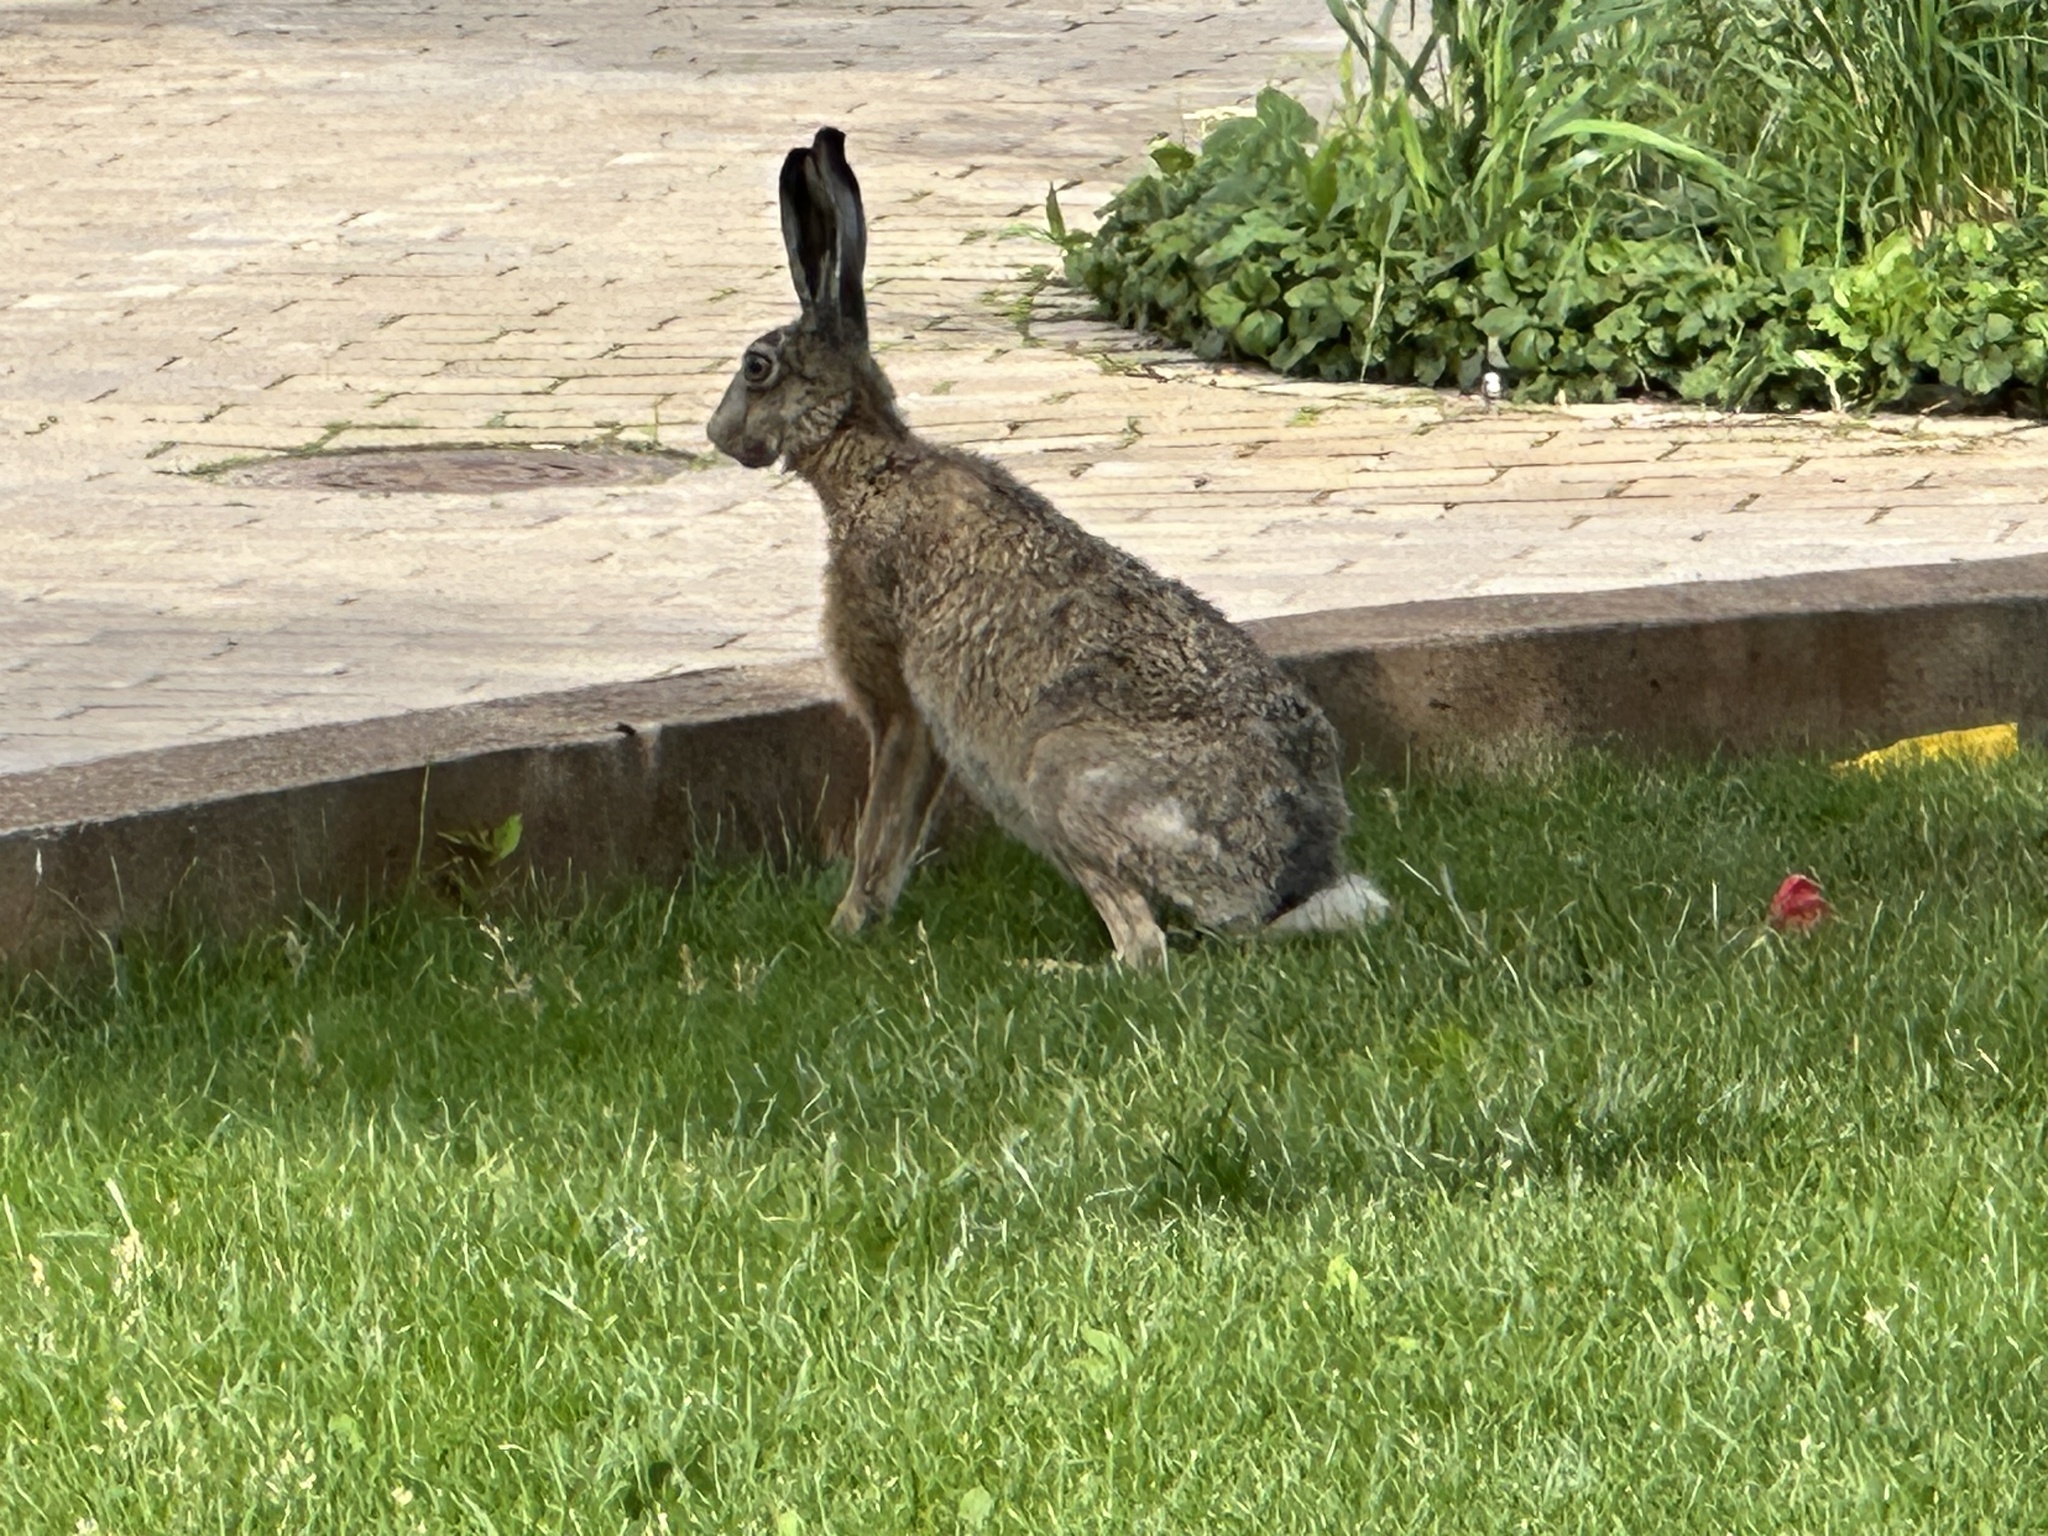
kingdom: Animalia
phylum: Chordata
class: Mammalia
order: Lagomorpha
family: Leporidae
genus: Lepus
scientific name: Lepus europaeus
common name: European hare
